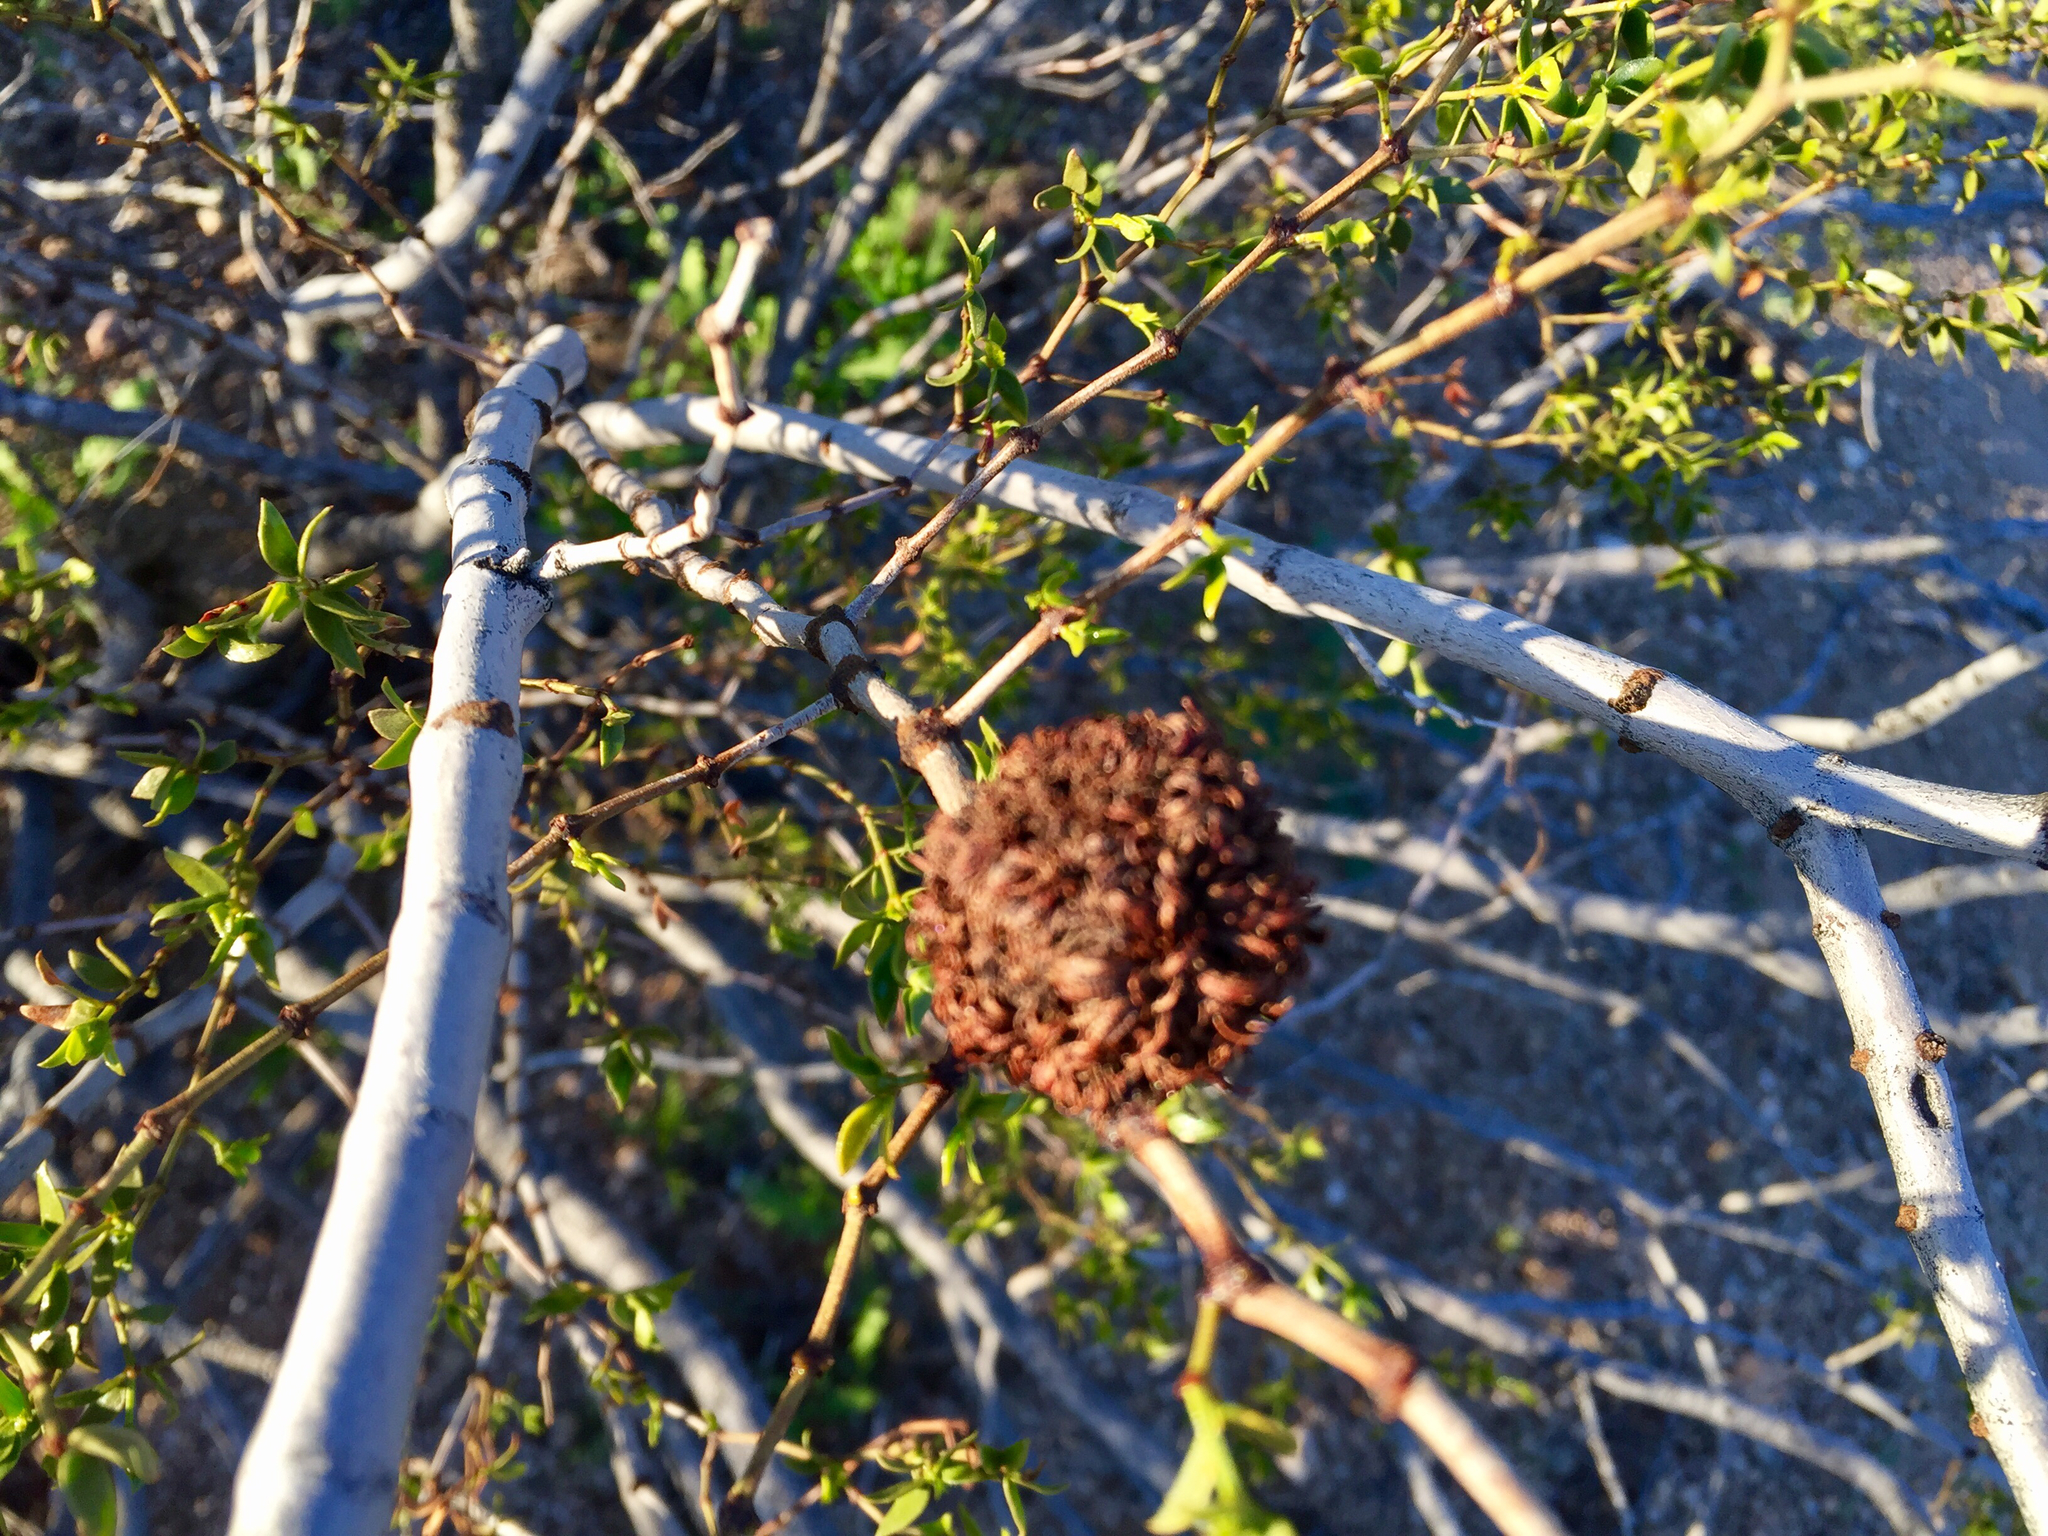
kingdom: Animalia
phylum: Arthropoda
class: Insecta
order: Diptera
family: Cecidomyiidae
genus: Asphondylia
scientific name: Asphondylia auripila
